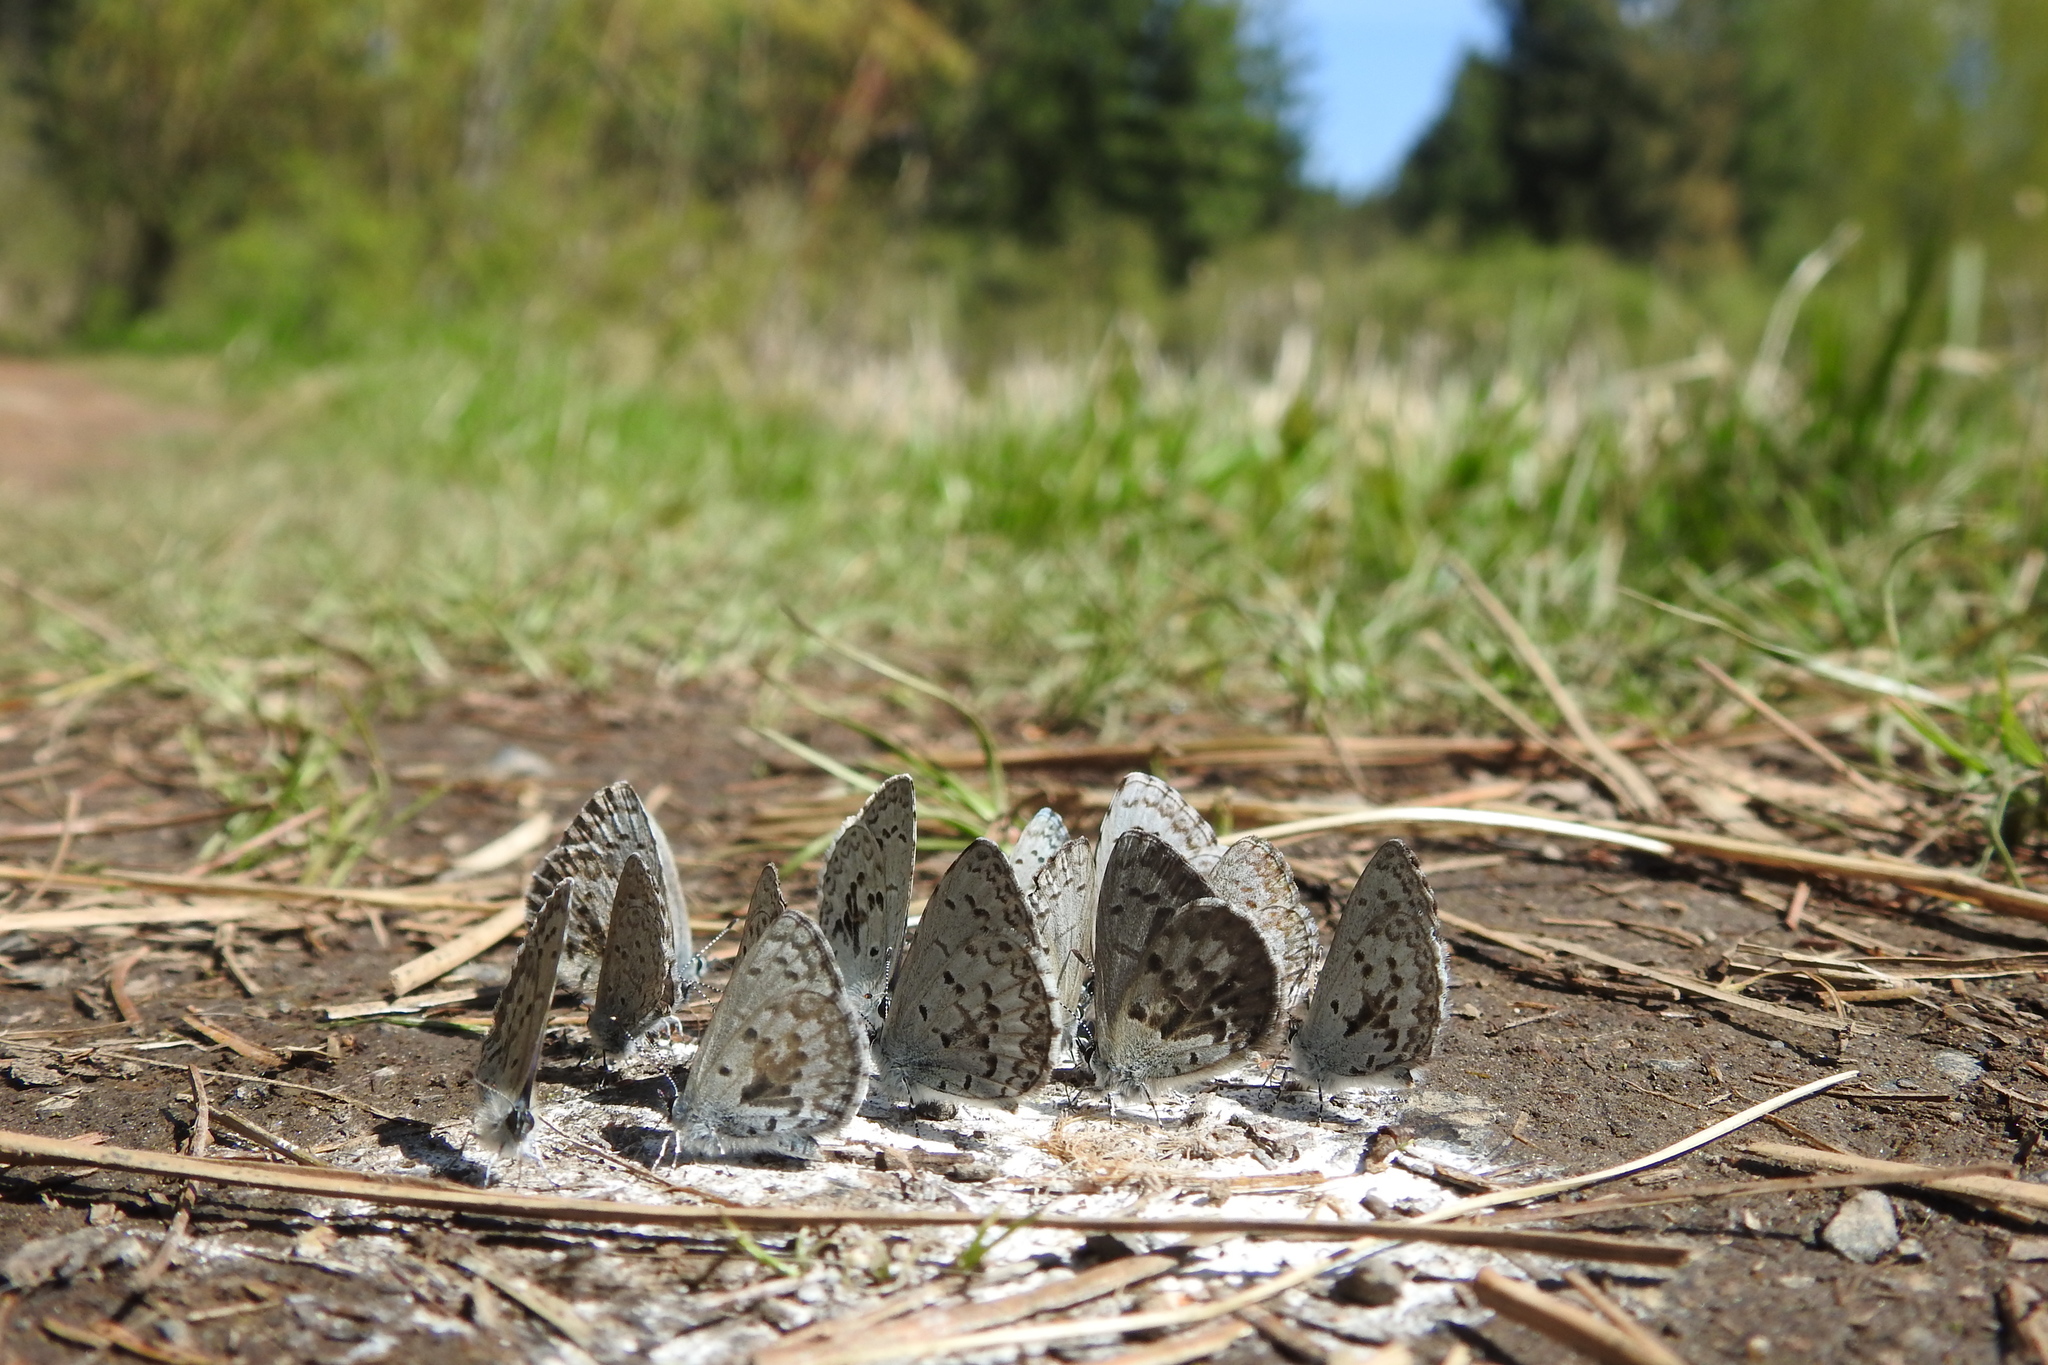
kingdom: Animalia
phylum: Arthropoda
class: Insecta
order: Lepidoptera
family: Lycaenidae
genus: Celastrina
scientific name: Celastrina asheri
